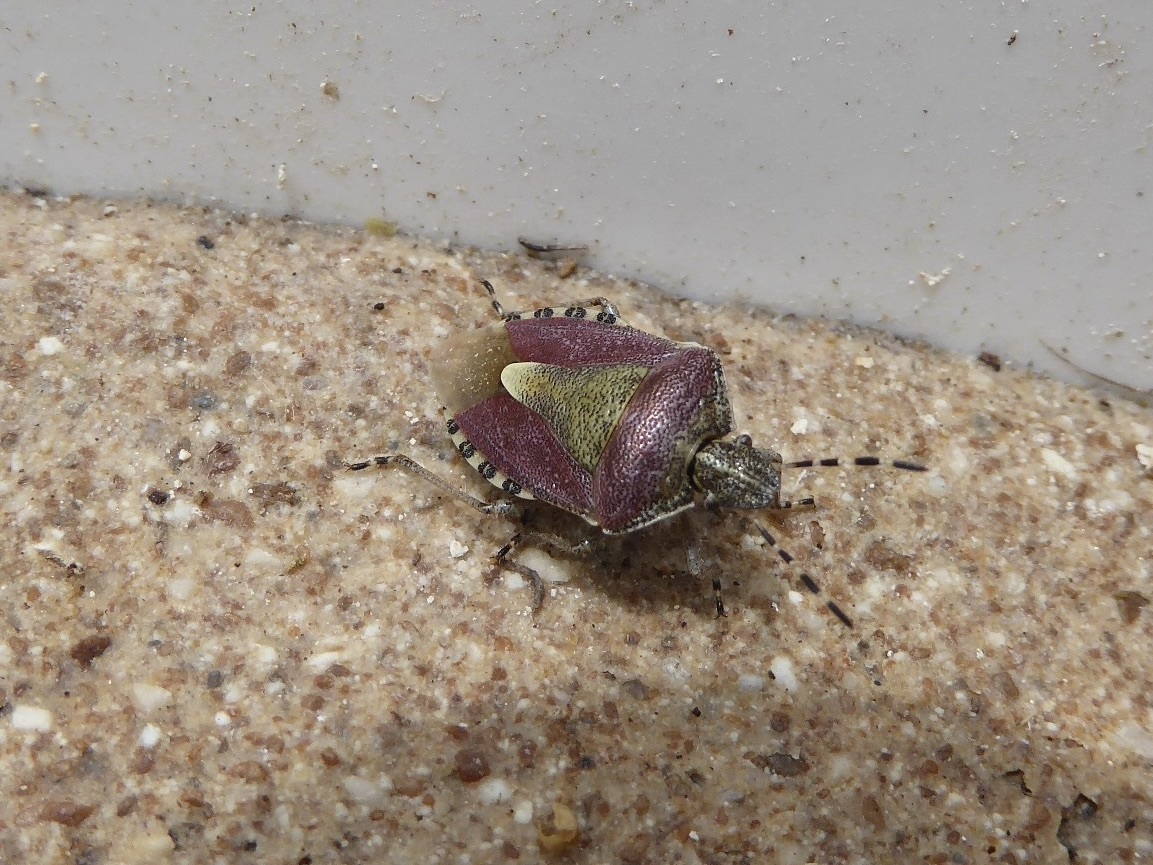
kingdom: Animalia
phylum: Arthropoda
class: Insecta
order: Hemiptera
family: Pentatomidae
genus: Dolycoris
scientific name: Dolycoris baccarum
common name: Sloe bug
